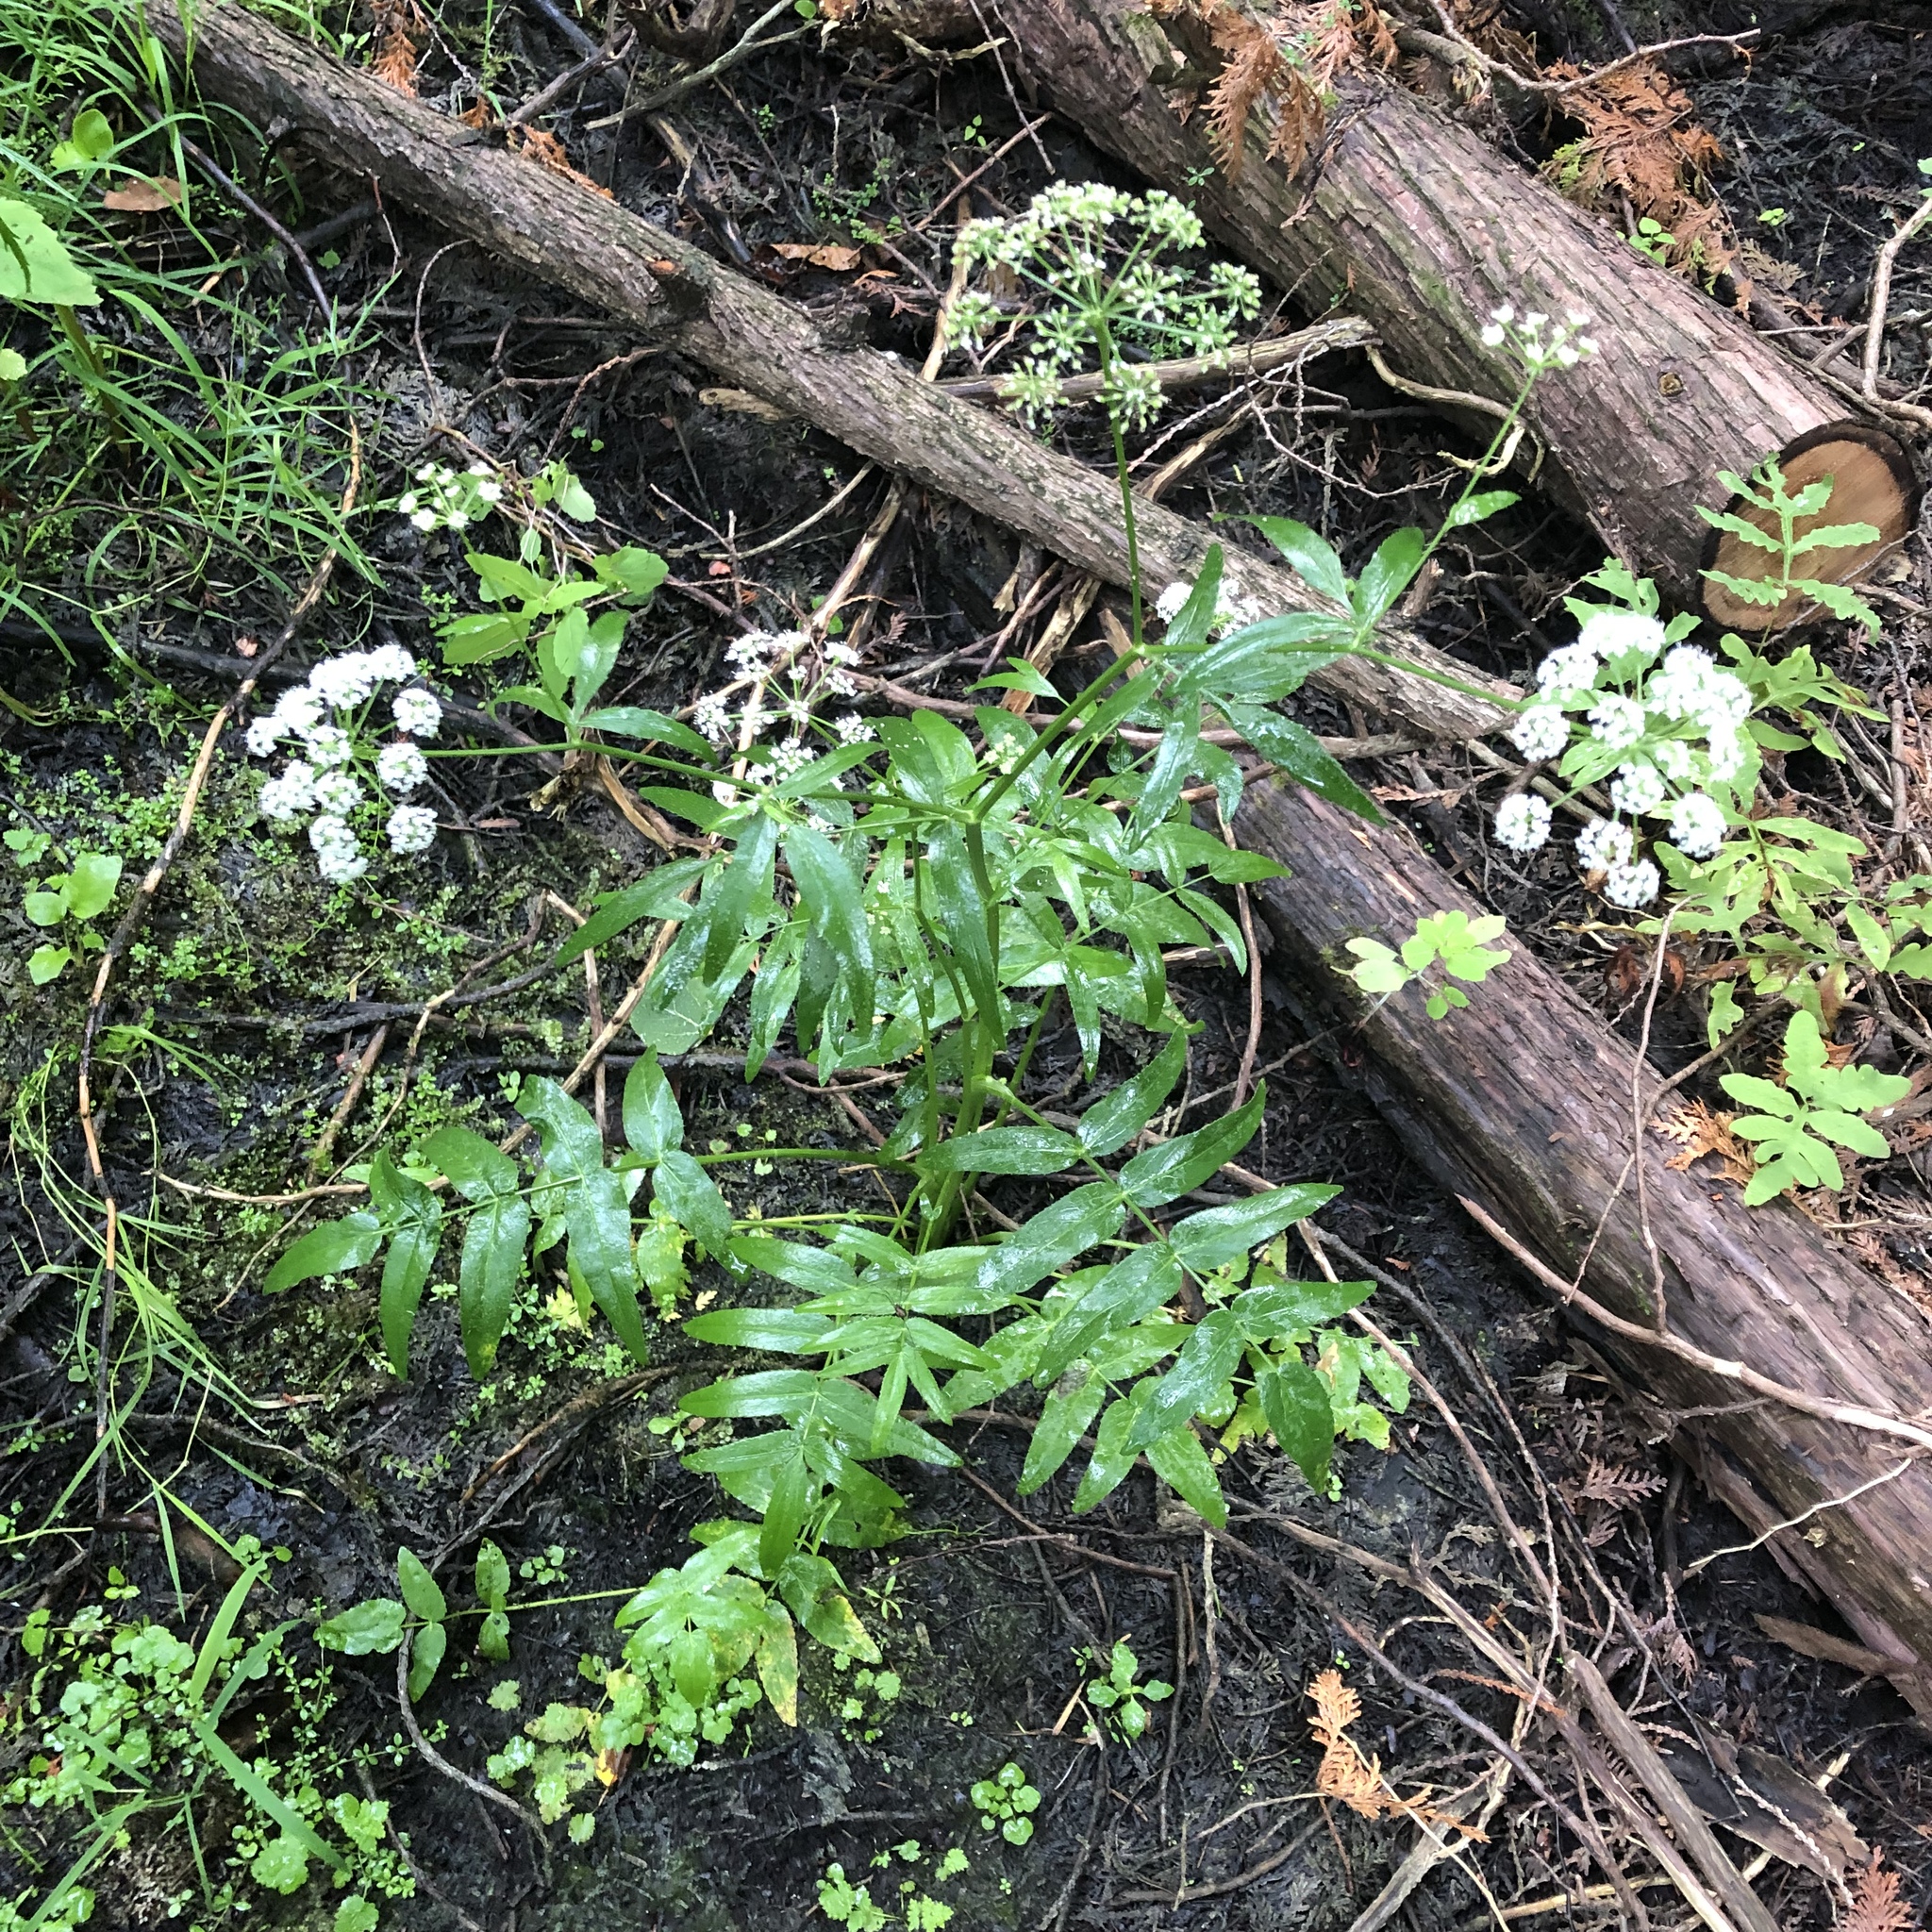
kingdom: Plantae
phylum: Tracheophyta
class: Magnoliopsida
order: Apiales
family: Apiaceae
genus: Sium
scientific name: Sium suave
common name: Hemlock water-parsnip
